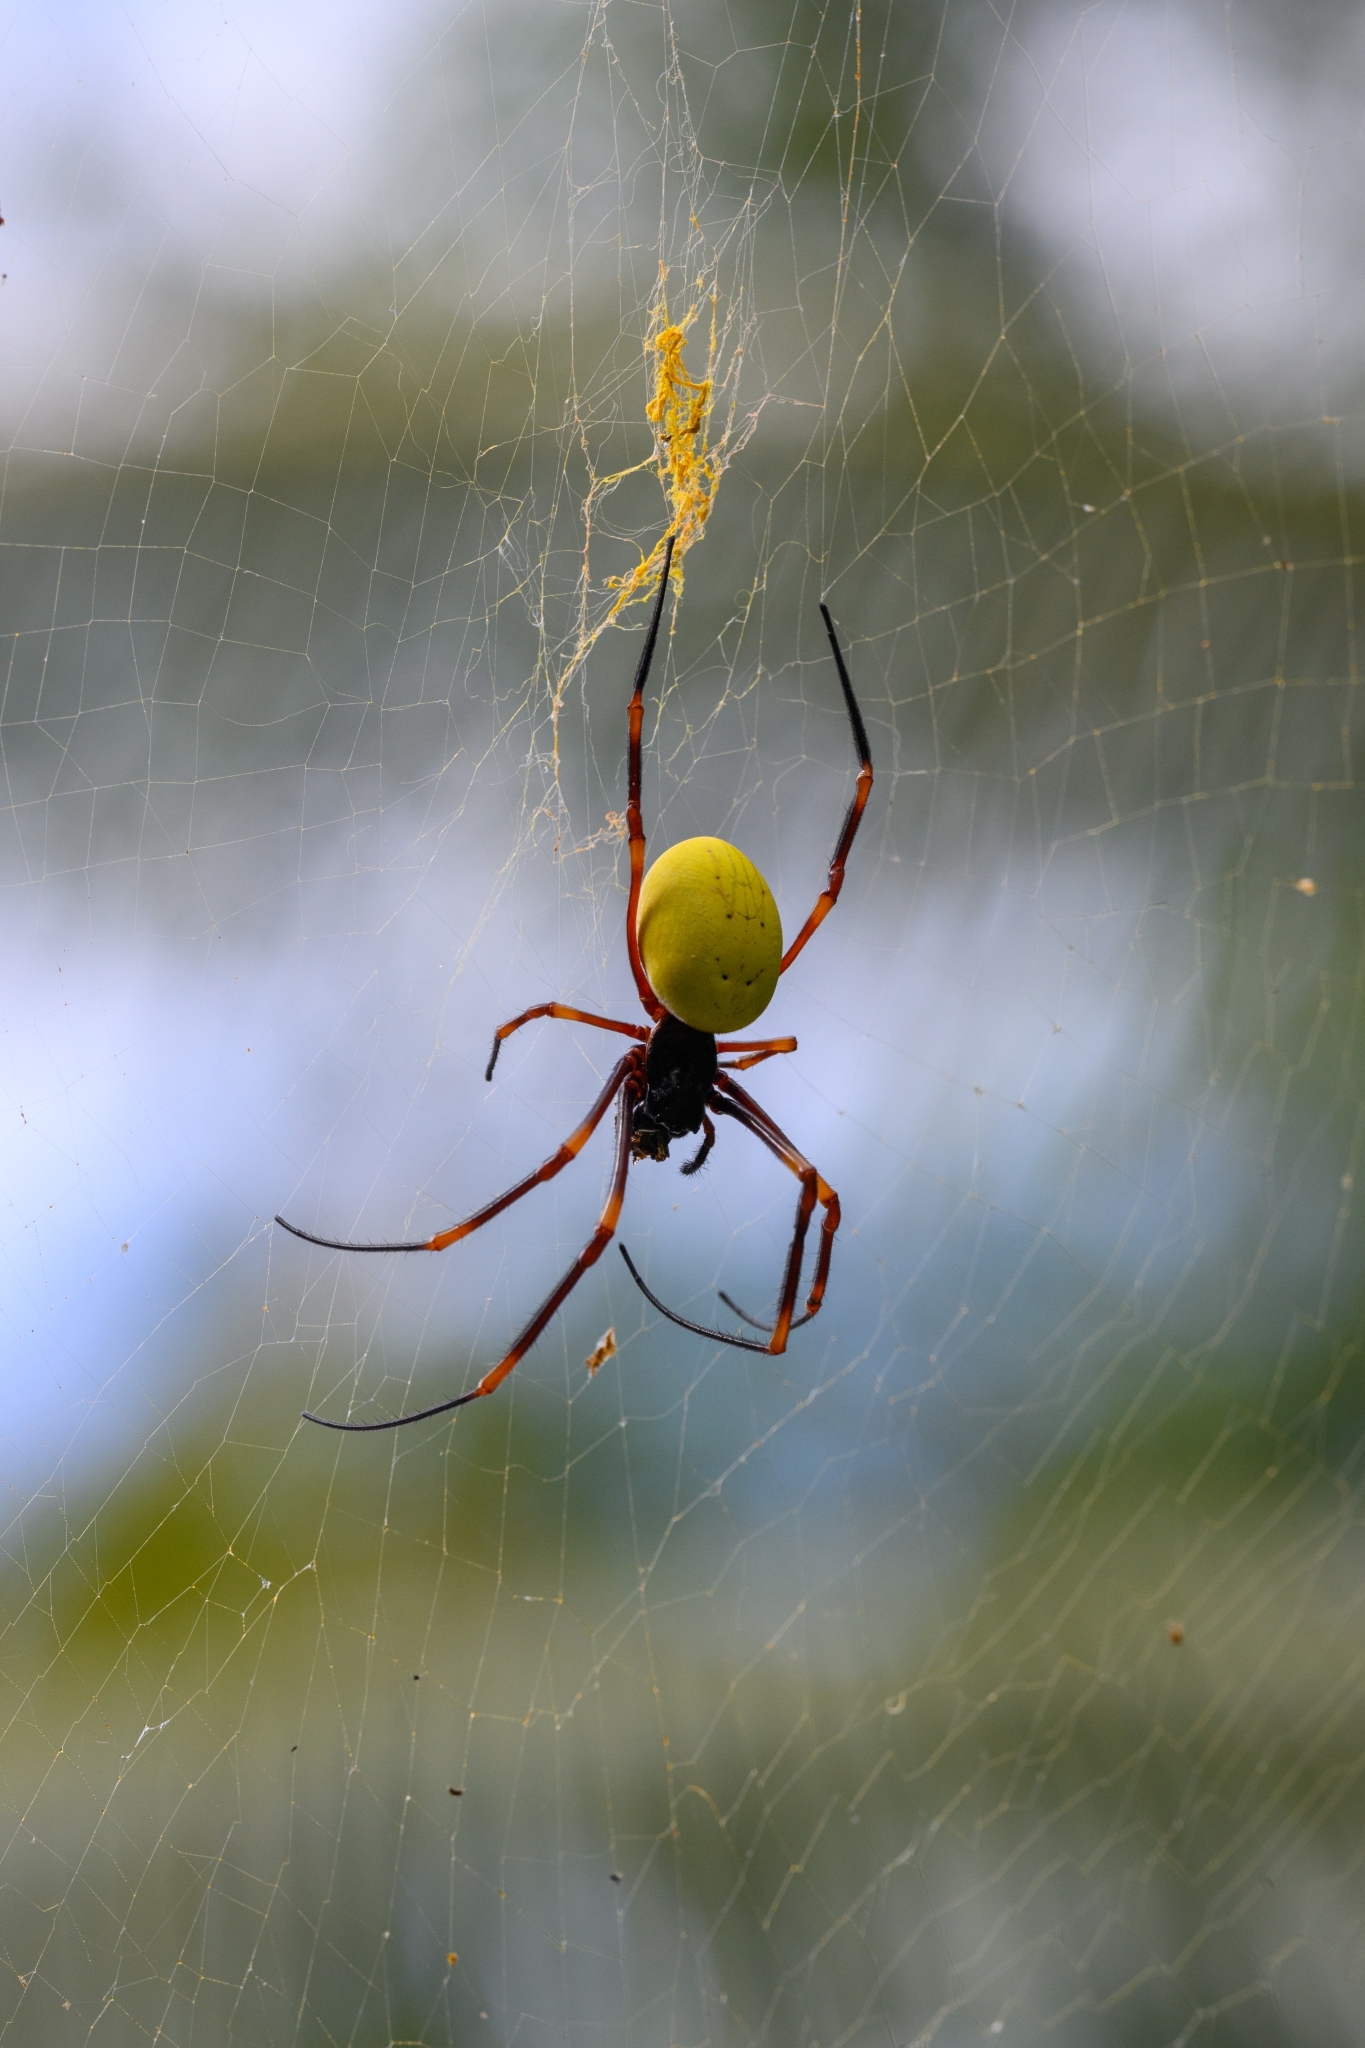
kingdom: Animalia
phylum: Arthropoda
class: Arachnida
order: Araneae
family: Araneidae
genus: Nephila
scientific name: Nephila tetragnathoides
